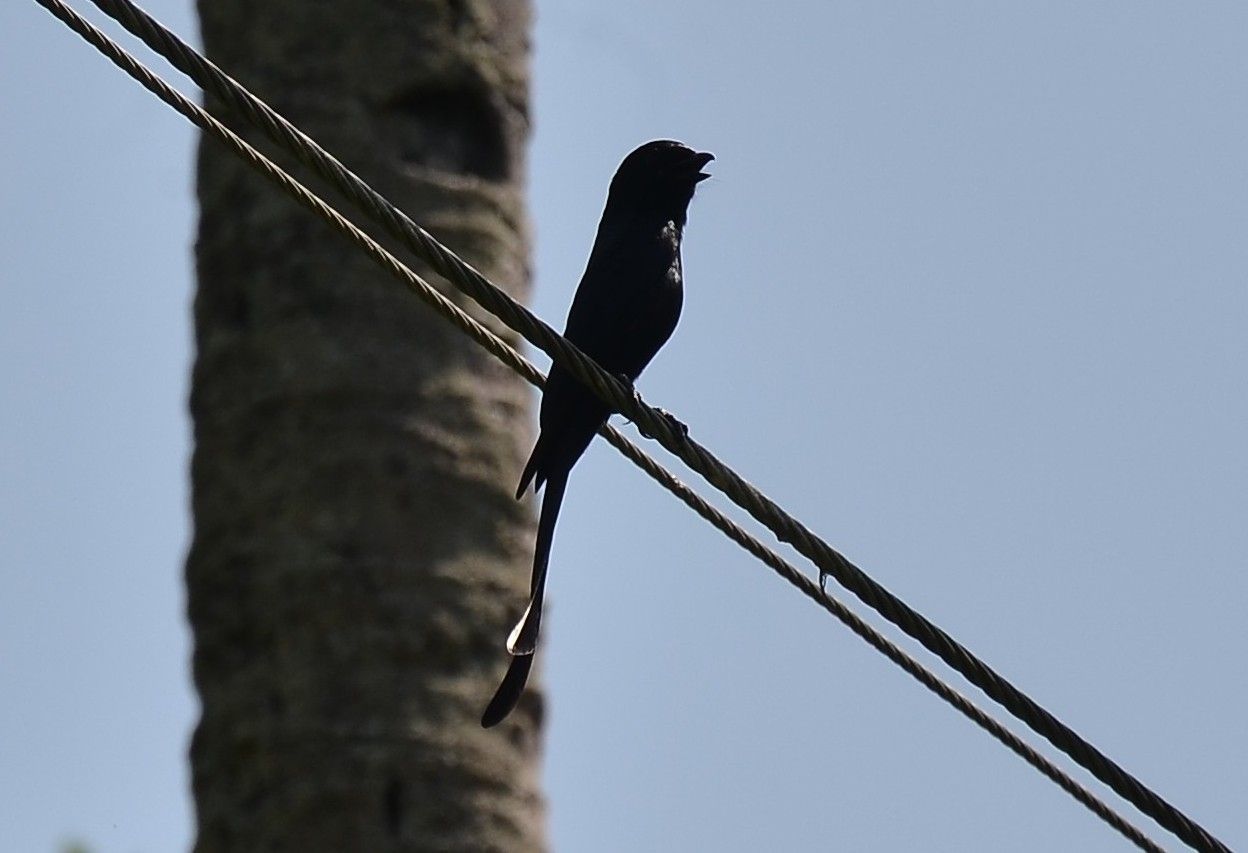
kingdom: Animalia
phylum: Chordata
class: Aves
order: Passeriformes
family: Dicruridae
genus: Dicrurus
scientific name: Dicrurus macrocercus
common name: Black drongo
